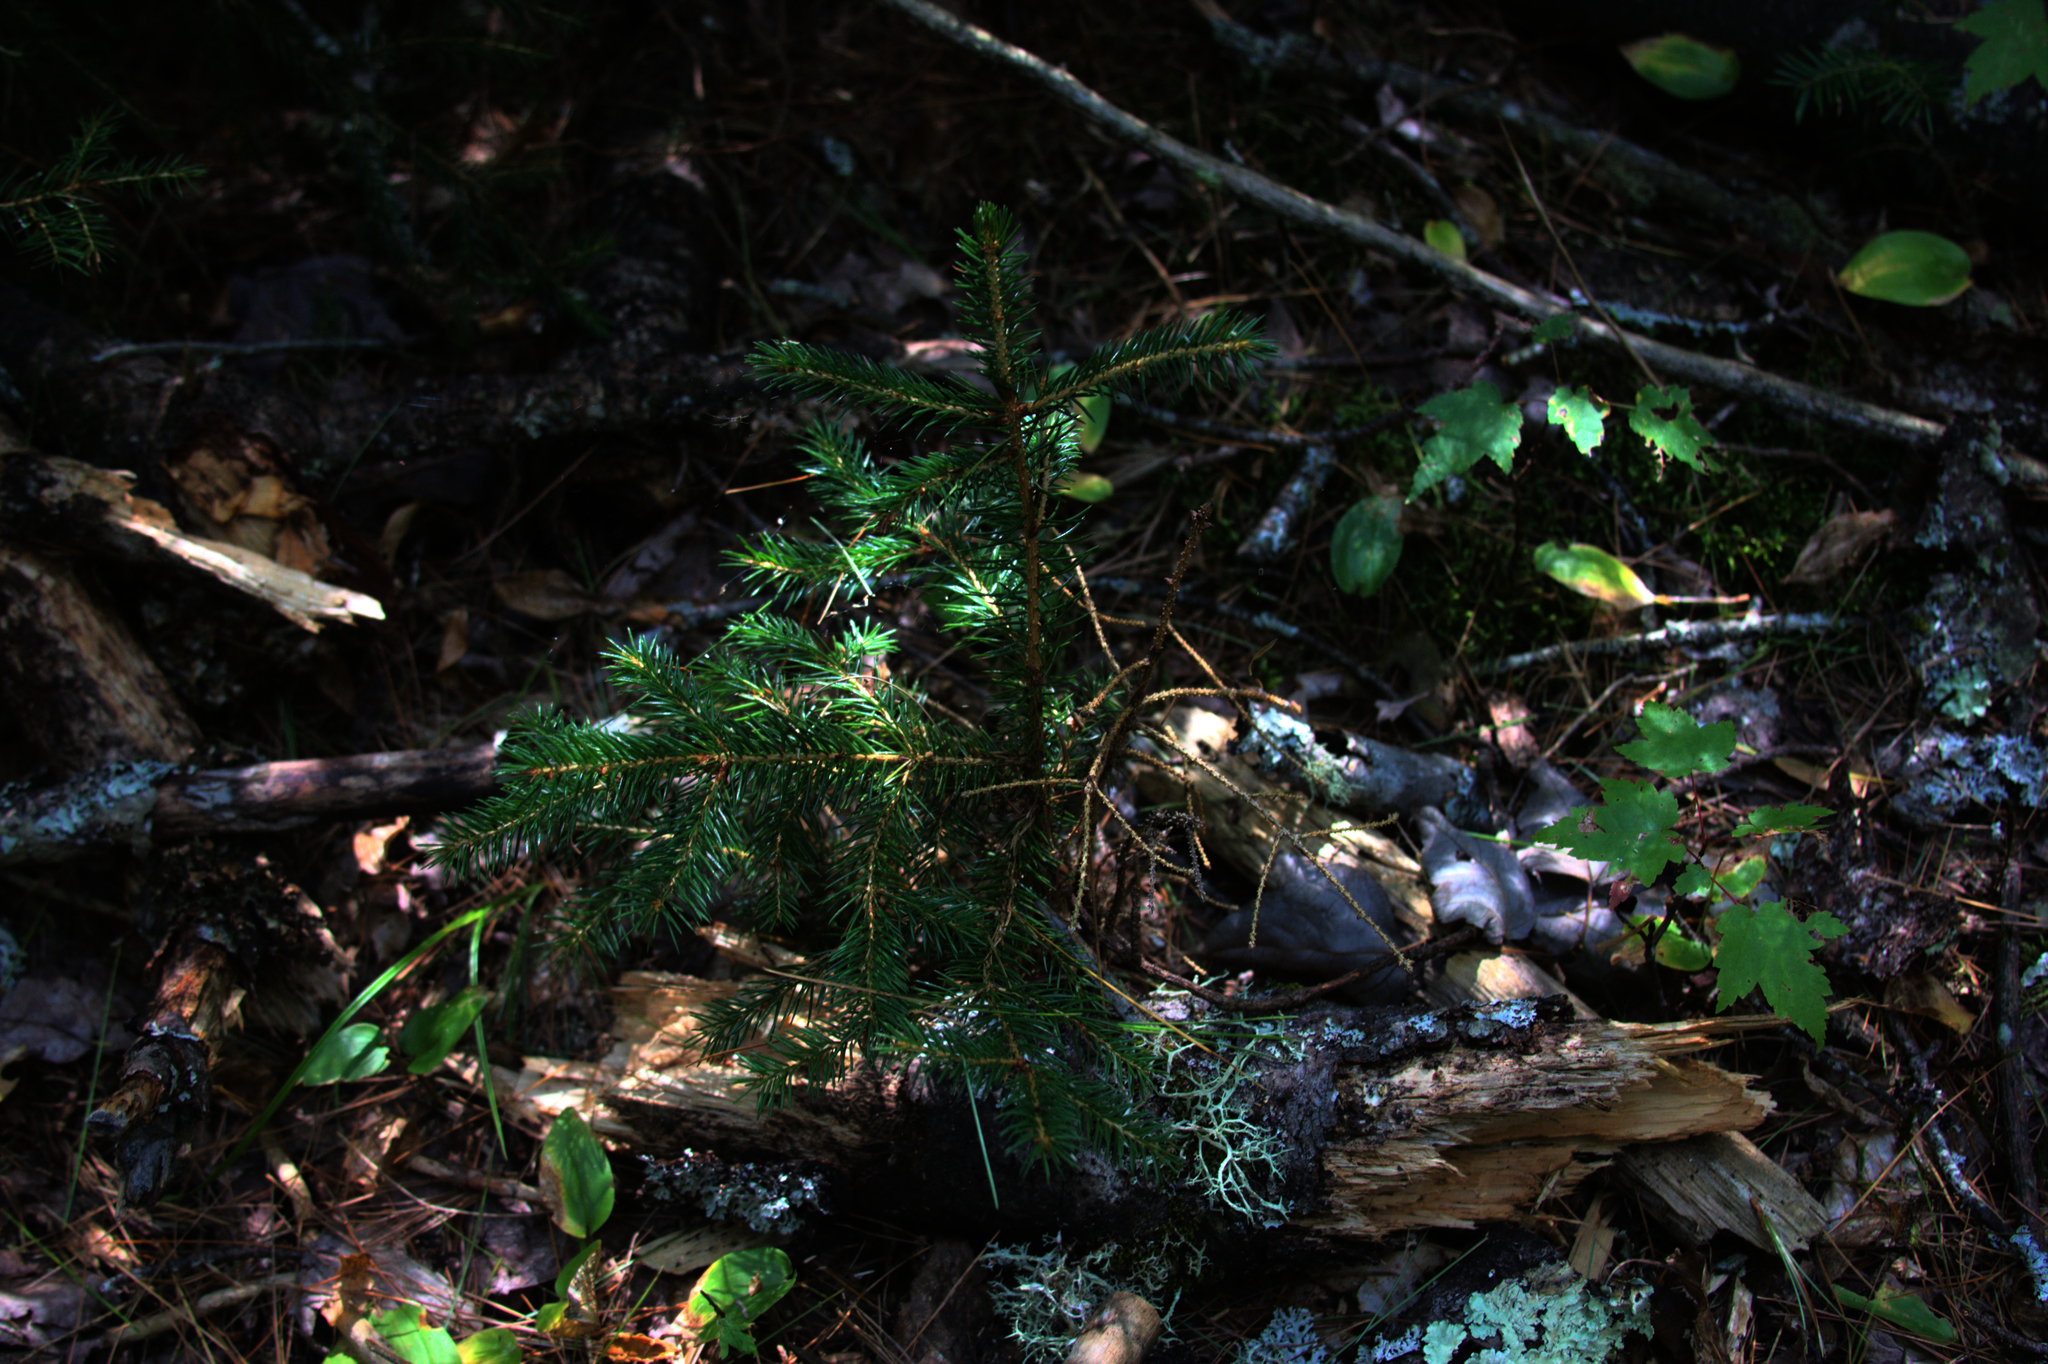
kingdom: Plantae
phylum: Tracheophyta
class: Pinopsida
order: Pinales
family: Pinaceae
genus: Tsuga
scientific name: Tsuga canadensis
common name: Eastern hemlock
